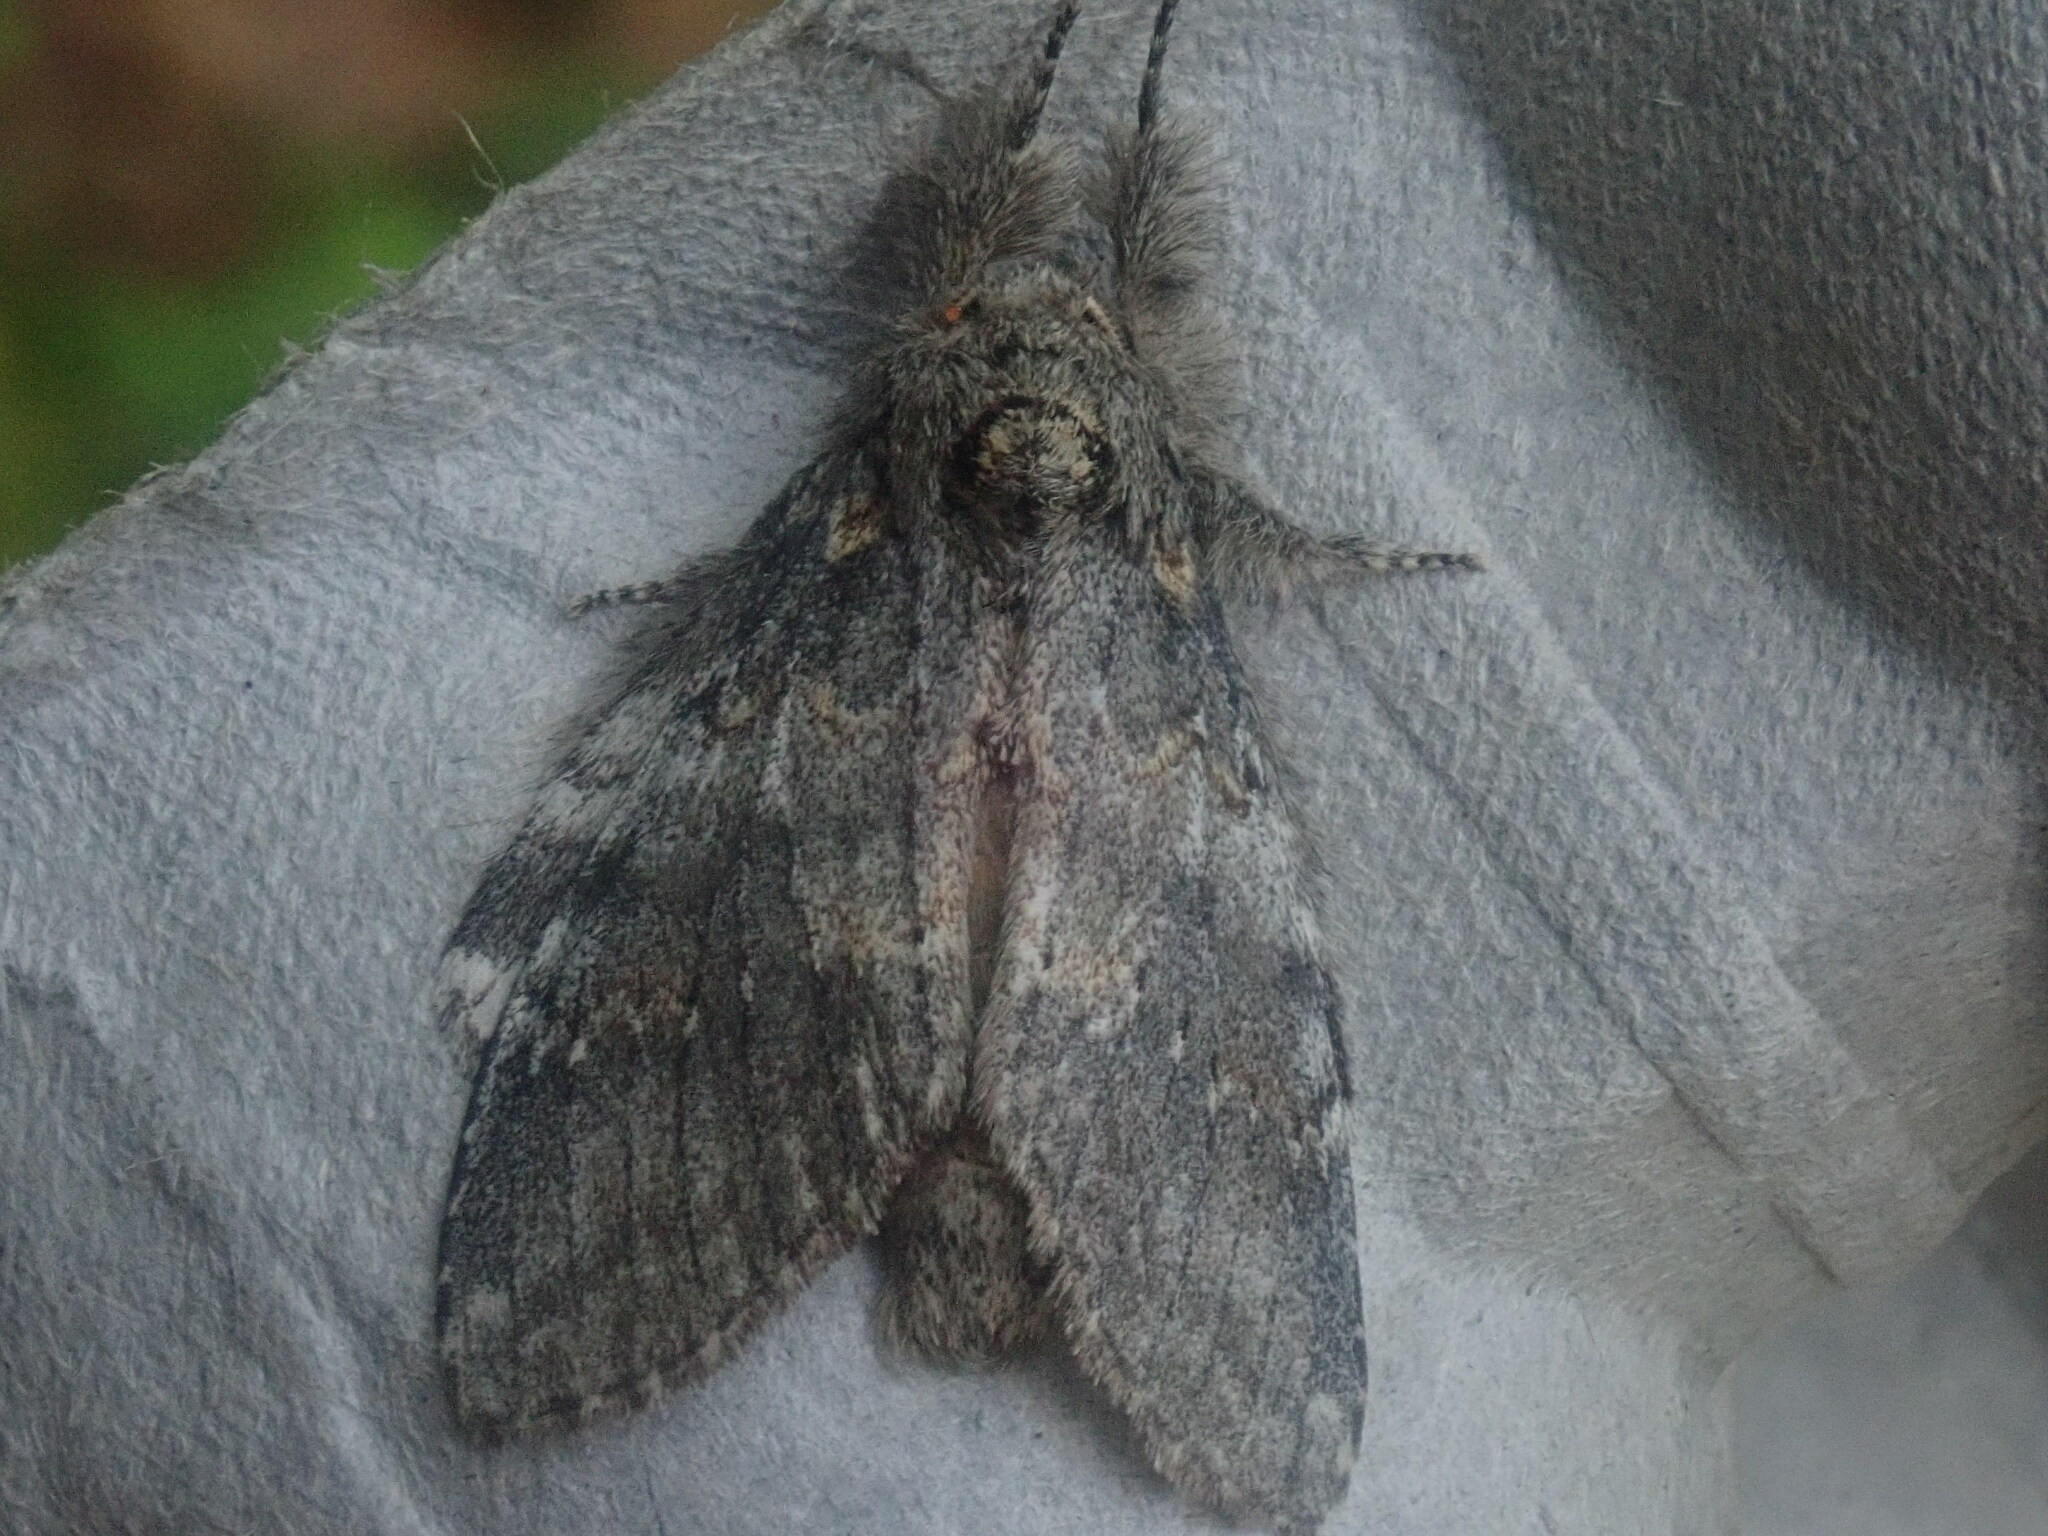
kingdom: Animalia
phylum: Arthropoda
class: Insecta
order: Lepidoptera
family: Notodontidae
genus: Peridea
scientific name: Peridea angulosa
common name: Angulose prominent
